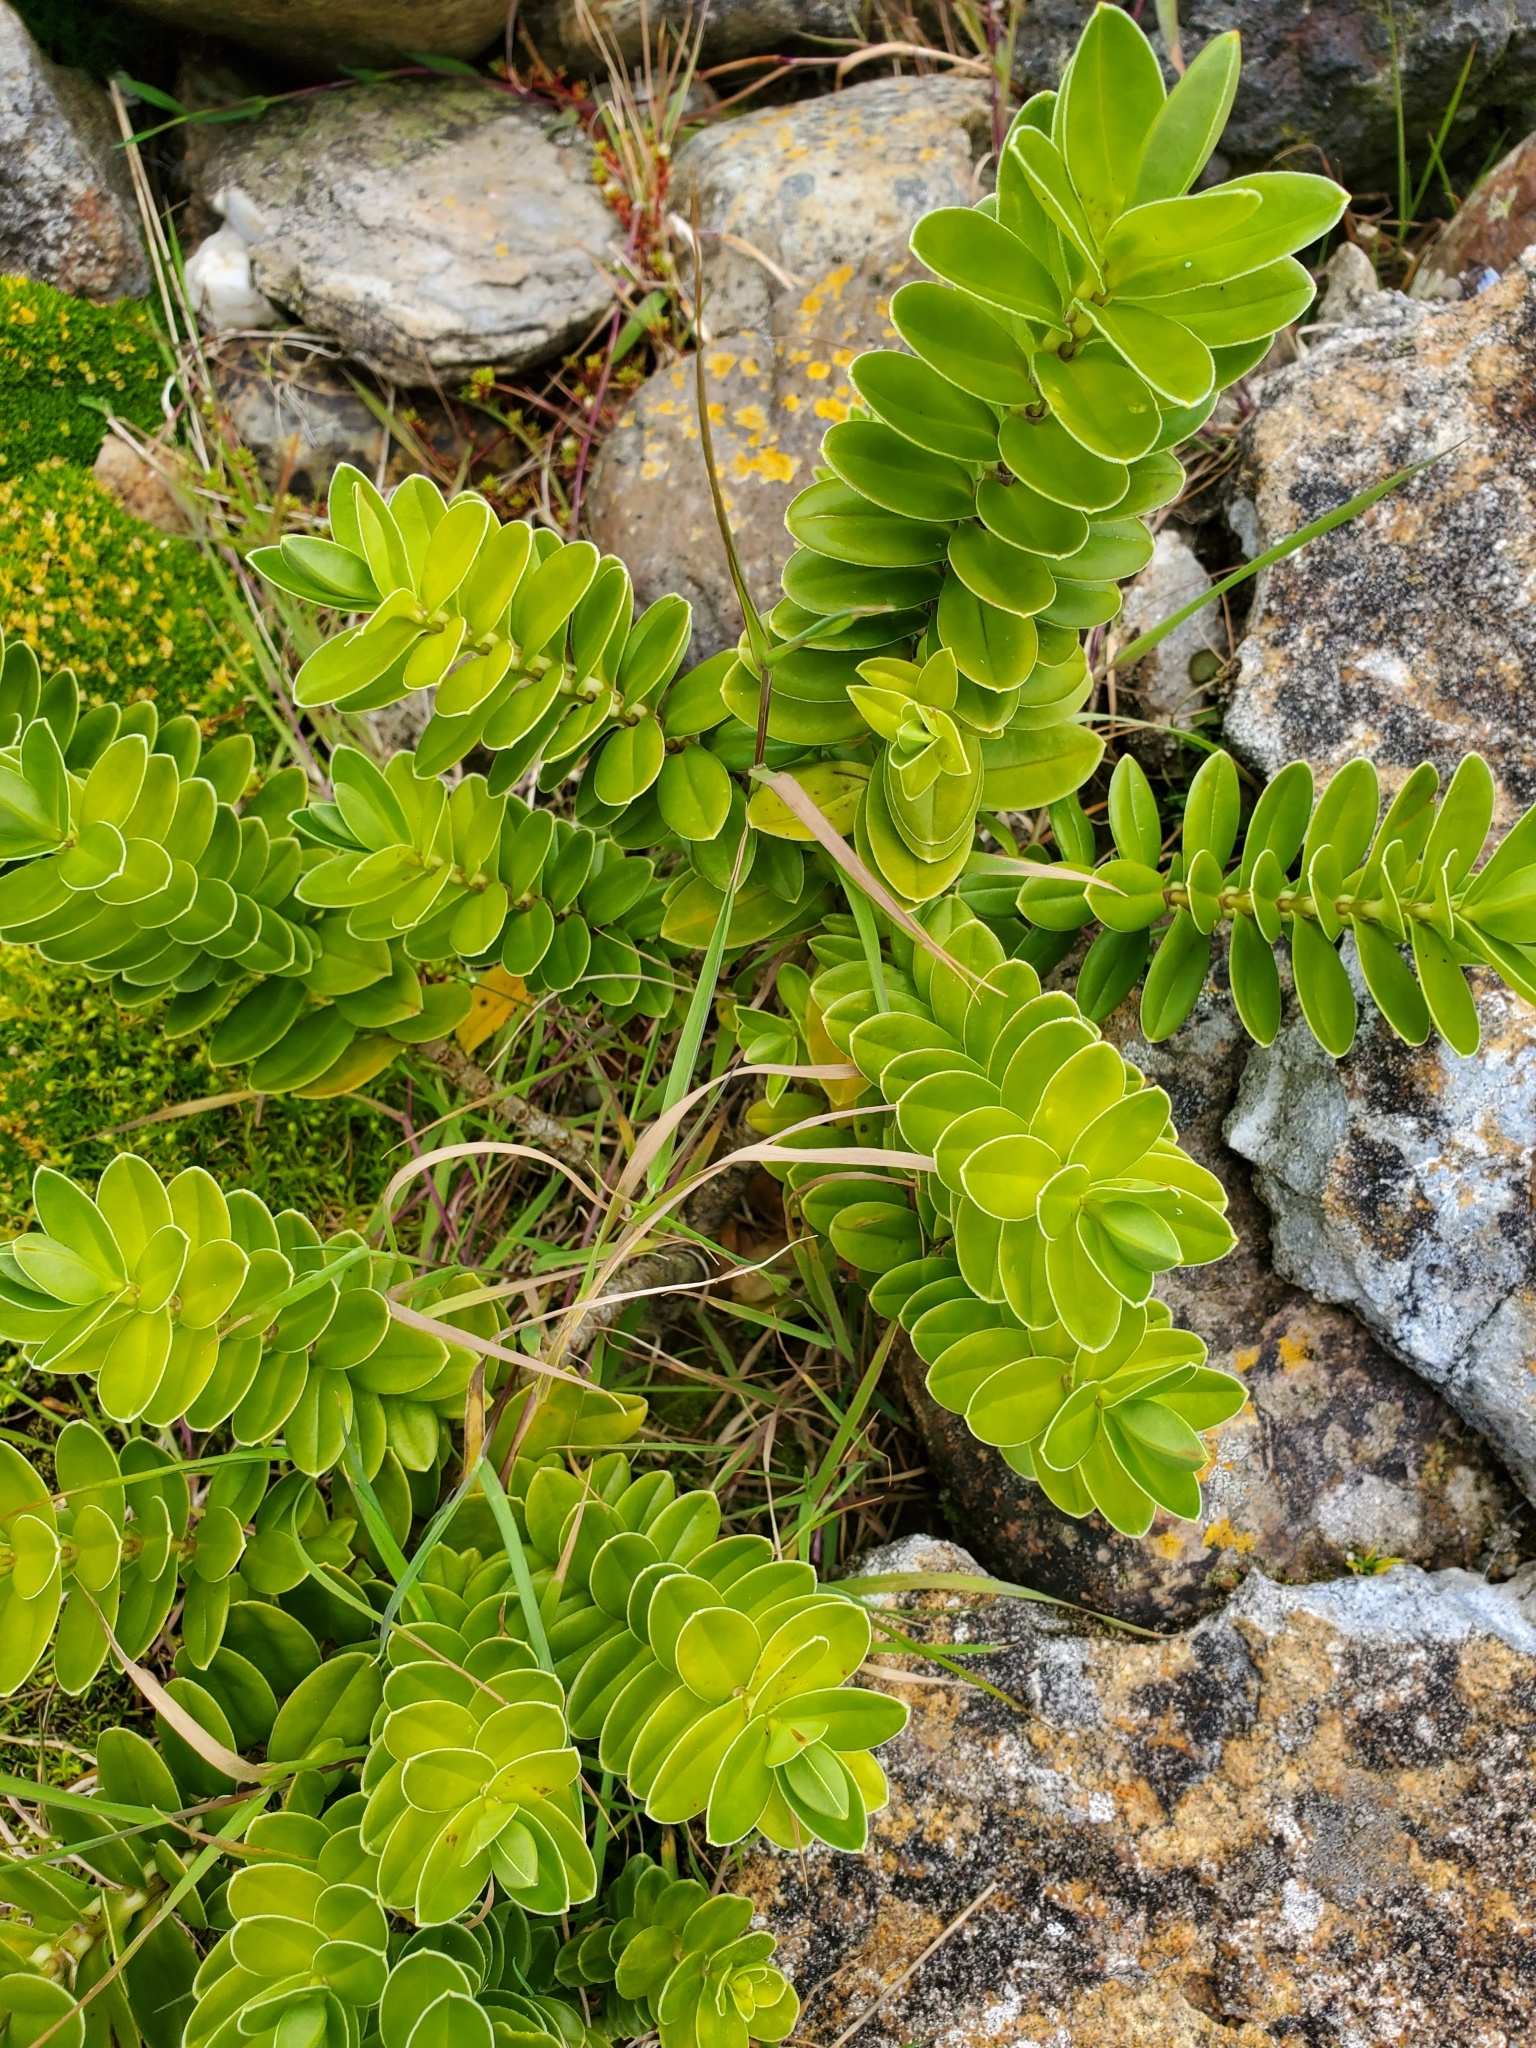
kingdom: Plantae
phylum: Tracheophyta
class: Magnoliopsida
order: Lamiales
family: Plantaginaceae
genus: Veronica
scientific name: Veronica elliptica
